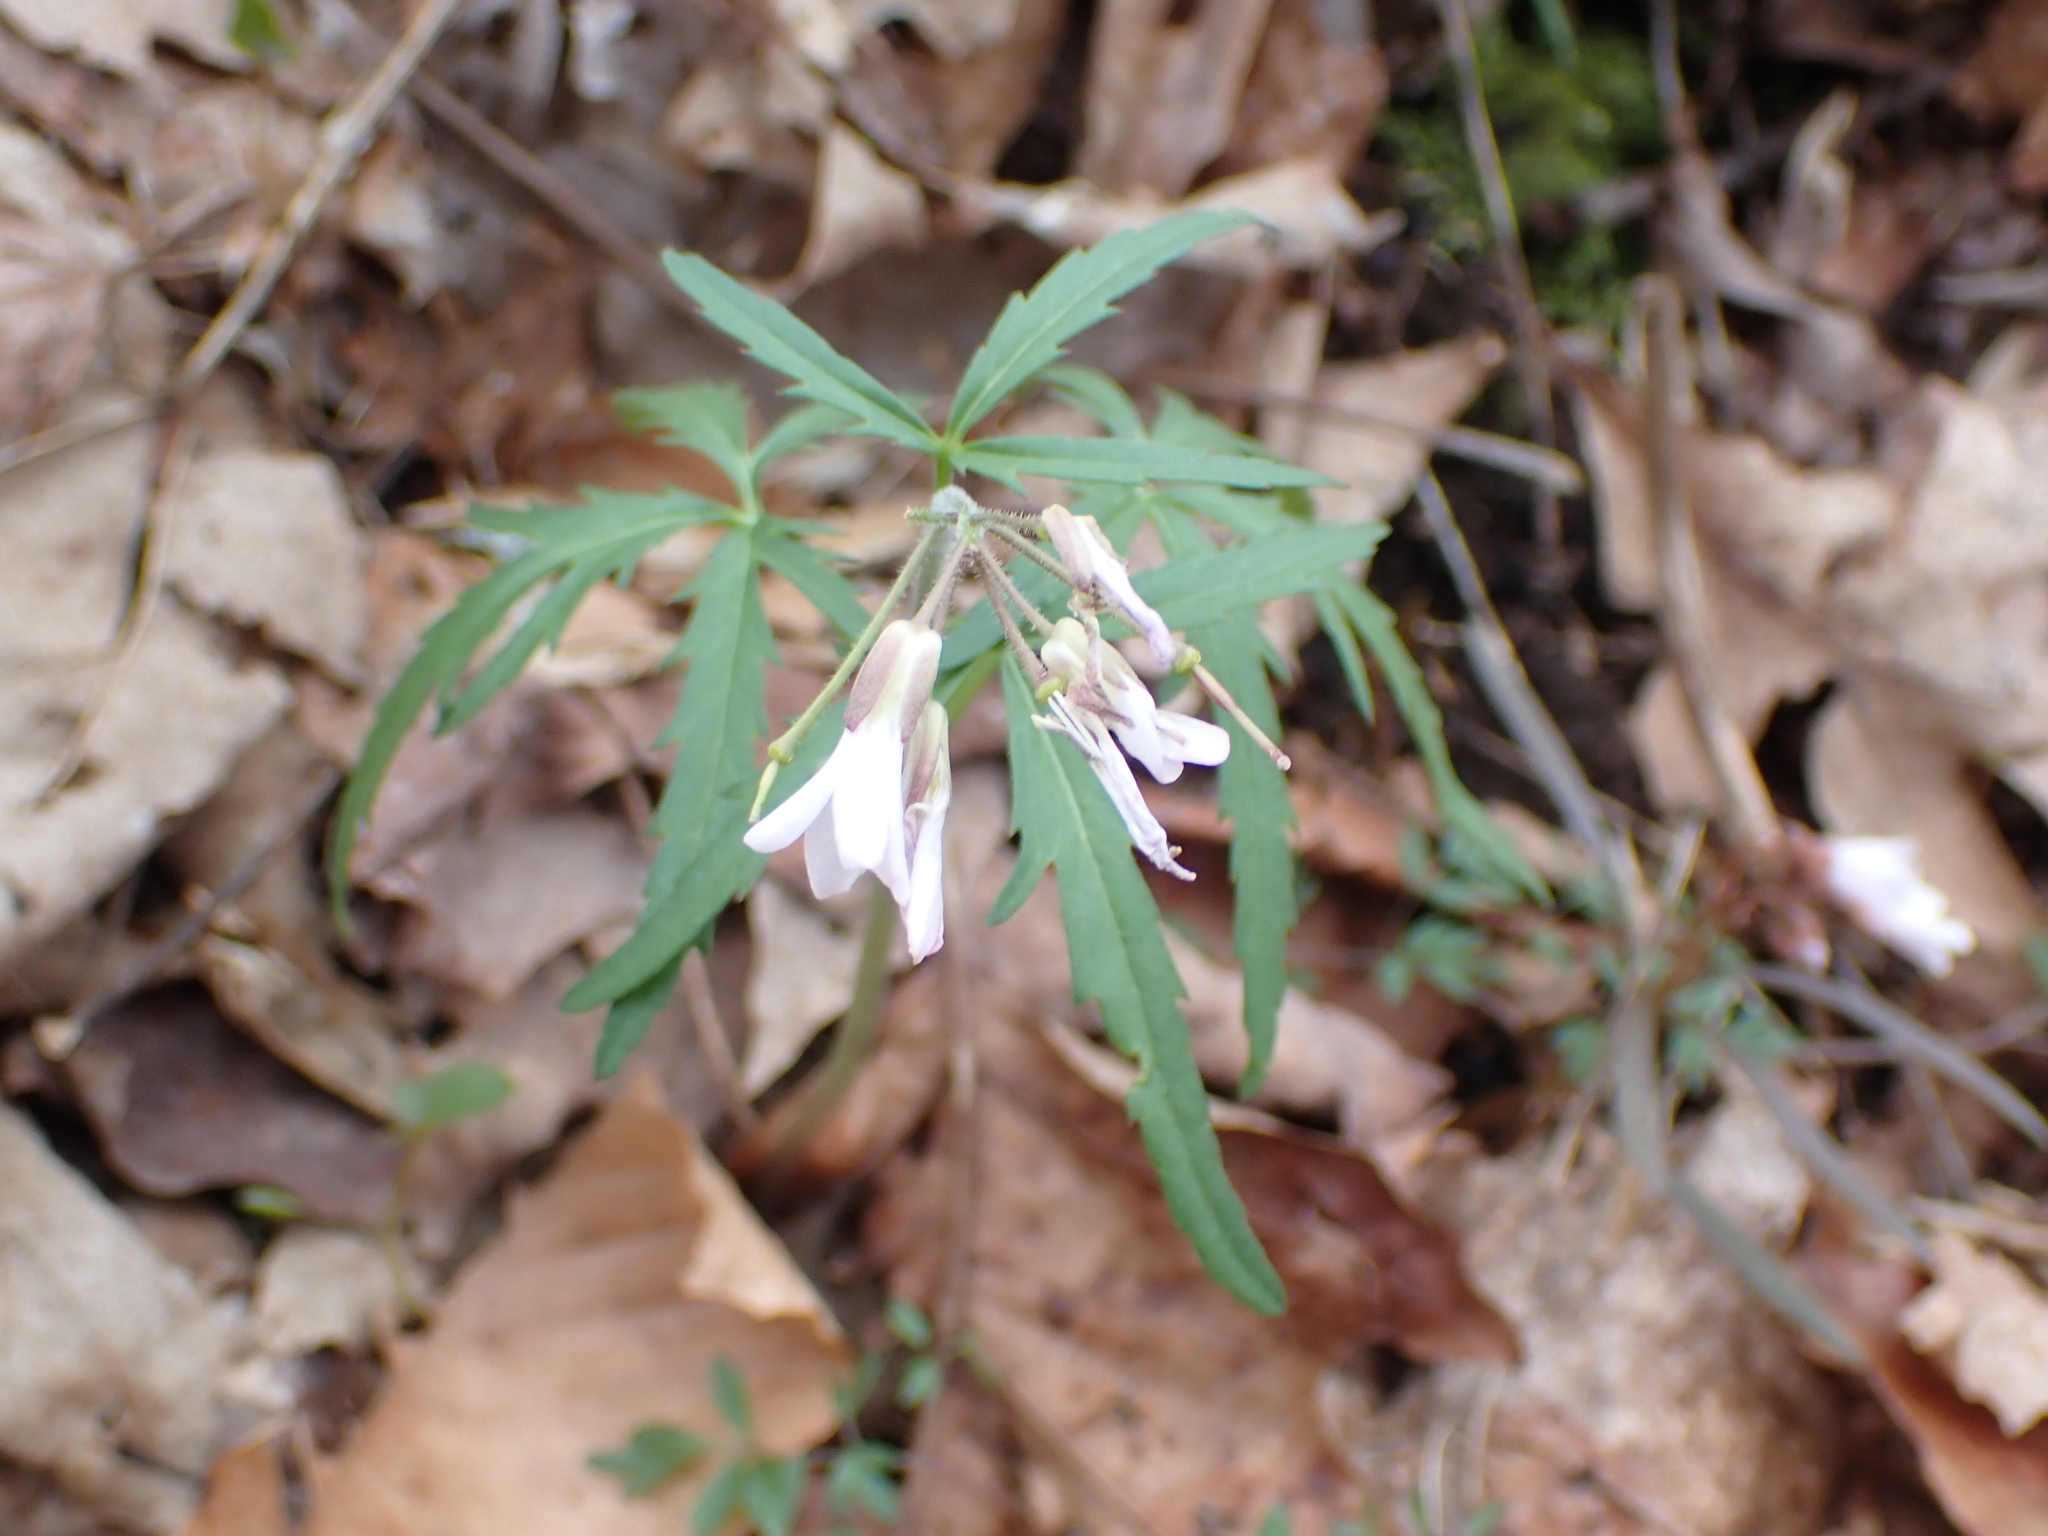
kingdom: Plantae
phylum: Tracheophyta
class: Magnoliopsida
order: Brassicales
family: Brassicaceae
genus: Cardamine
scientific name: Cardamine concatenata
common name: Cut-leaf toothcup
